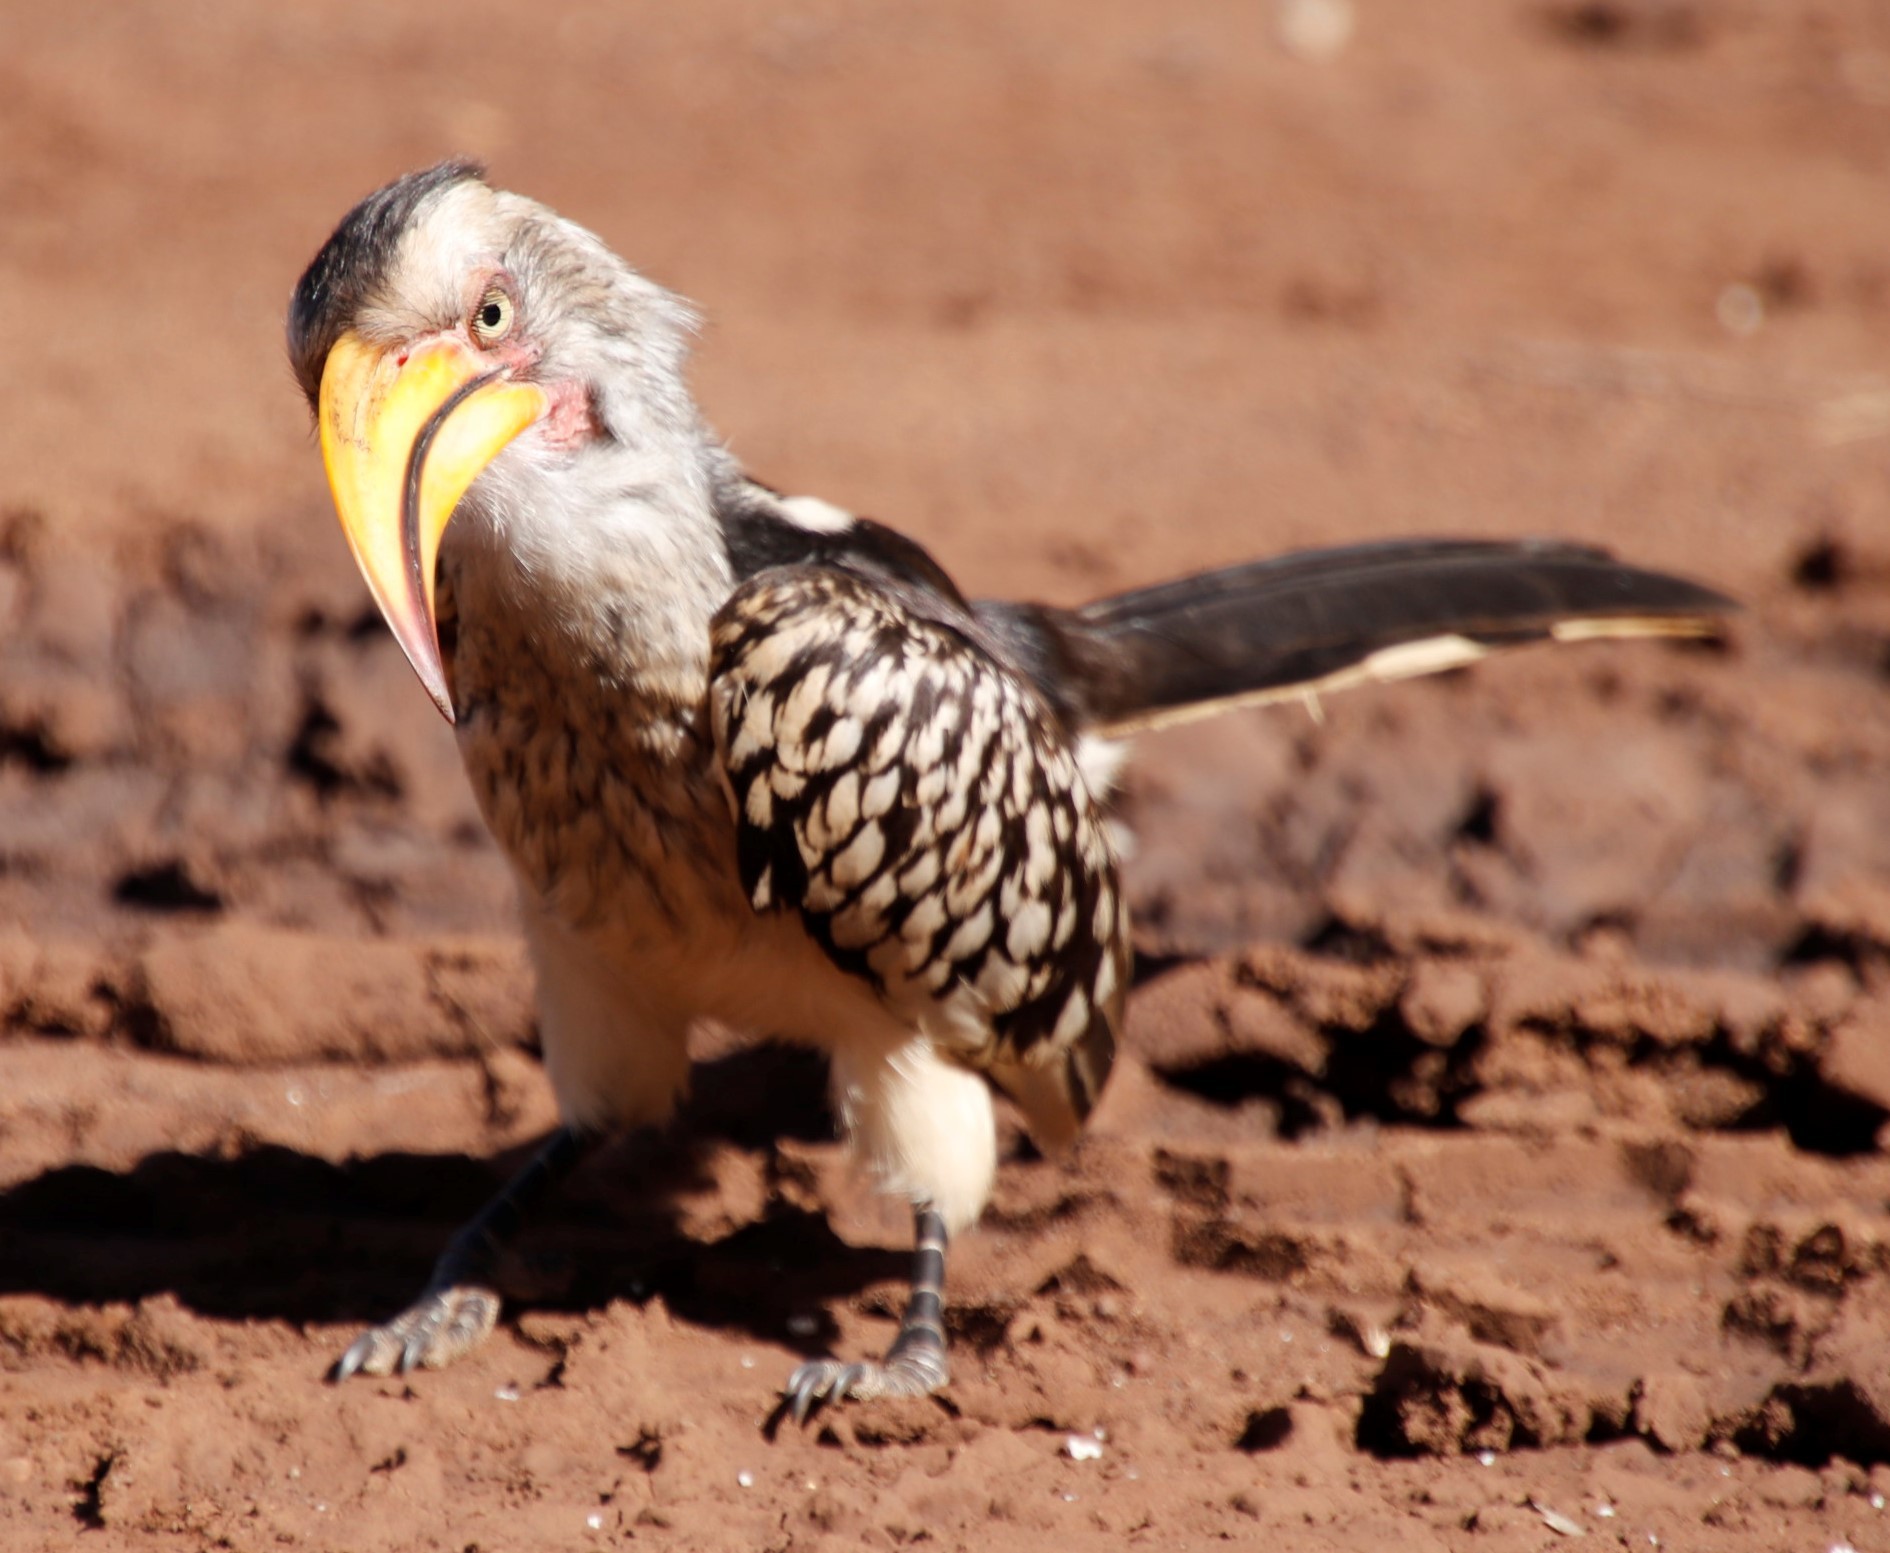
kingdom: Animalia
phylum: Chordata
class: Aves
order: Bucerotiformes
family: Bucerotidae
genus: Tockus
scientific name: Tockus leucomelas
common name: Southern yellow-billed hornbill
